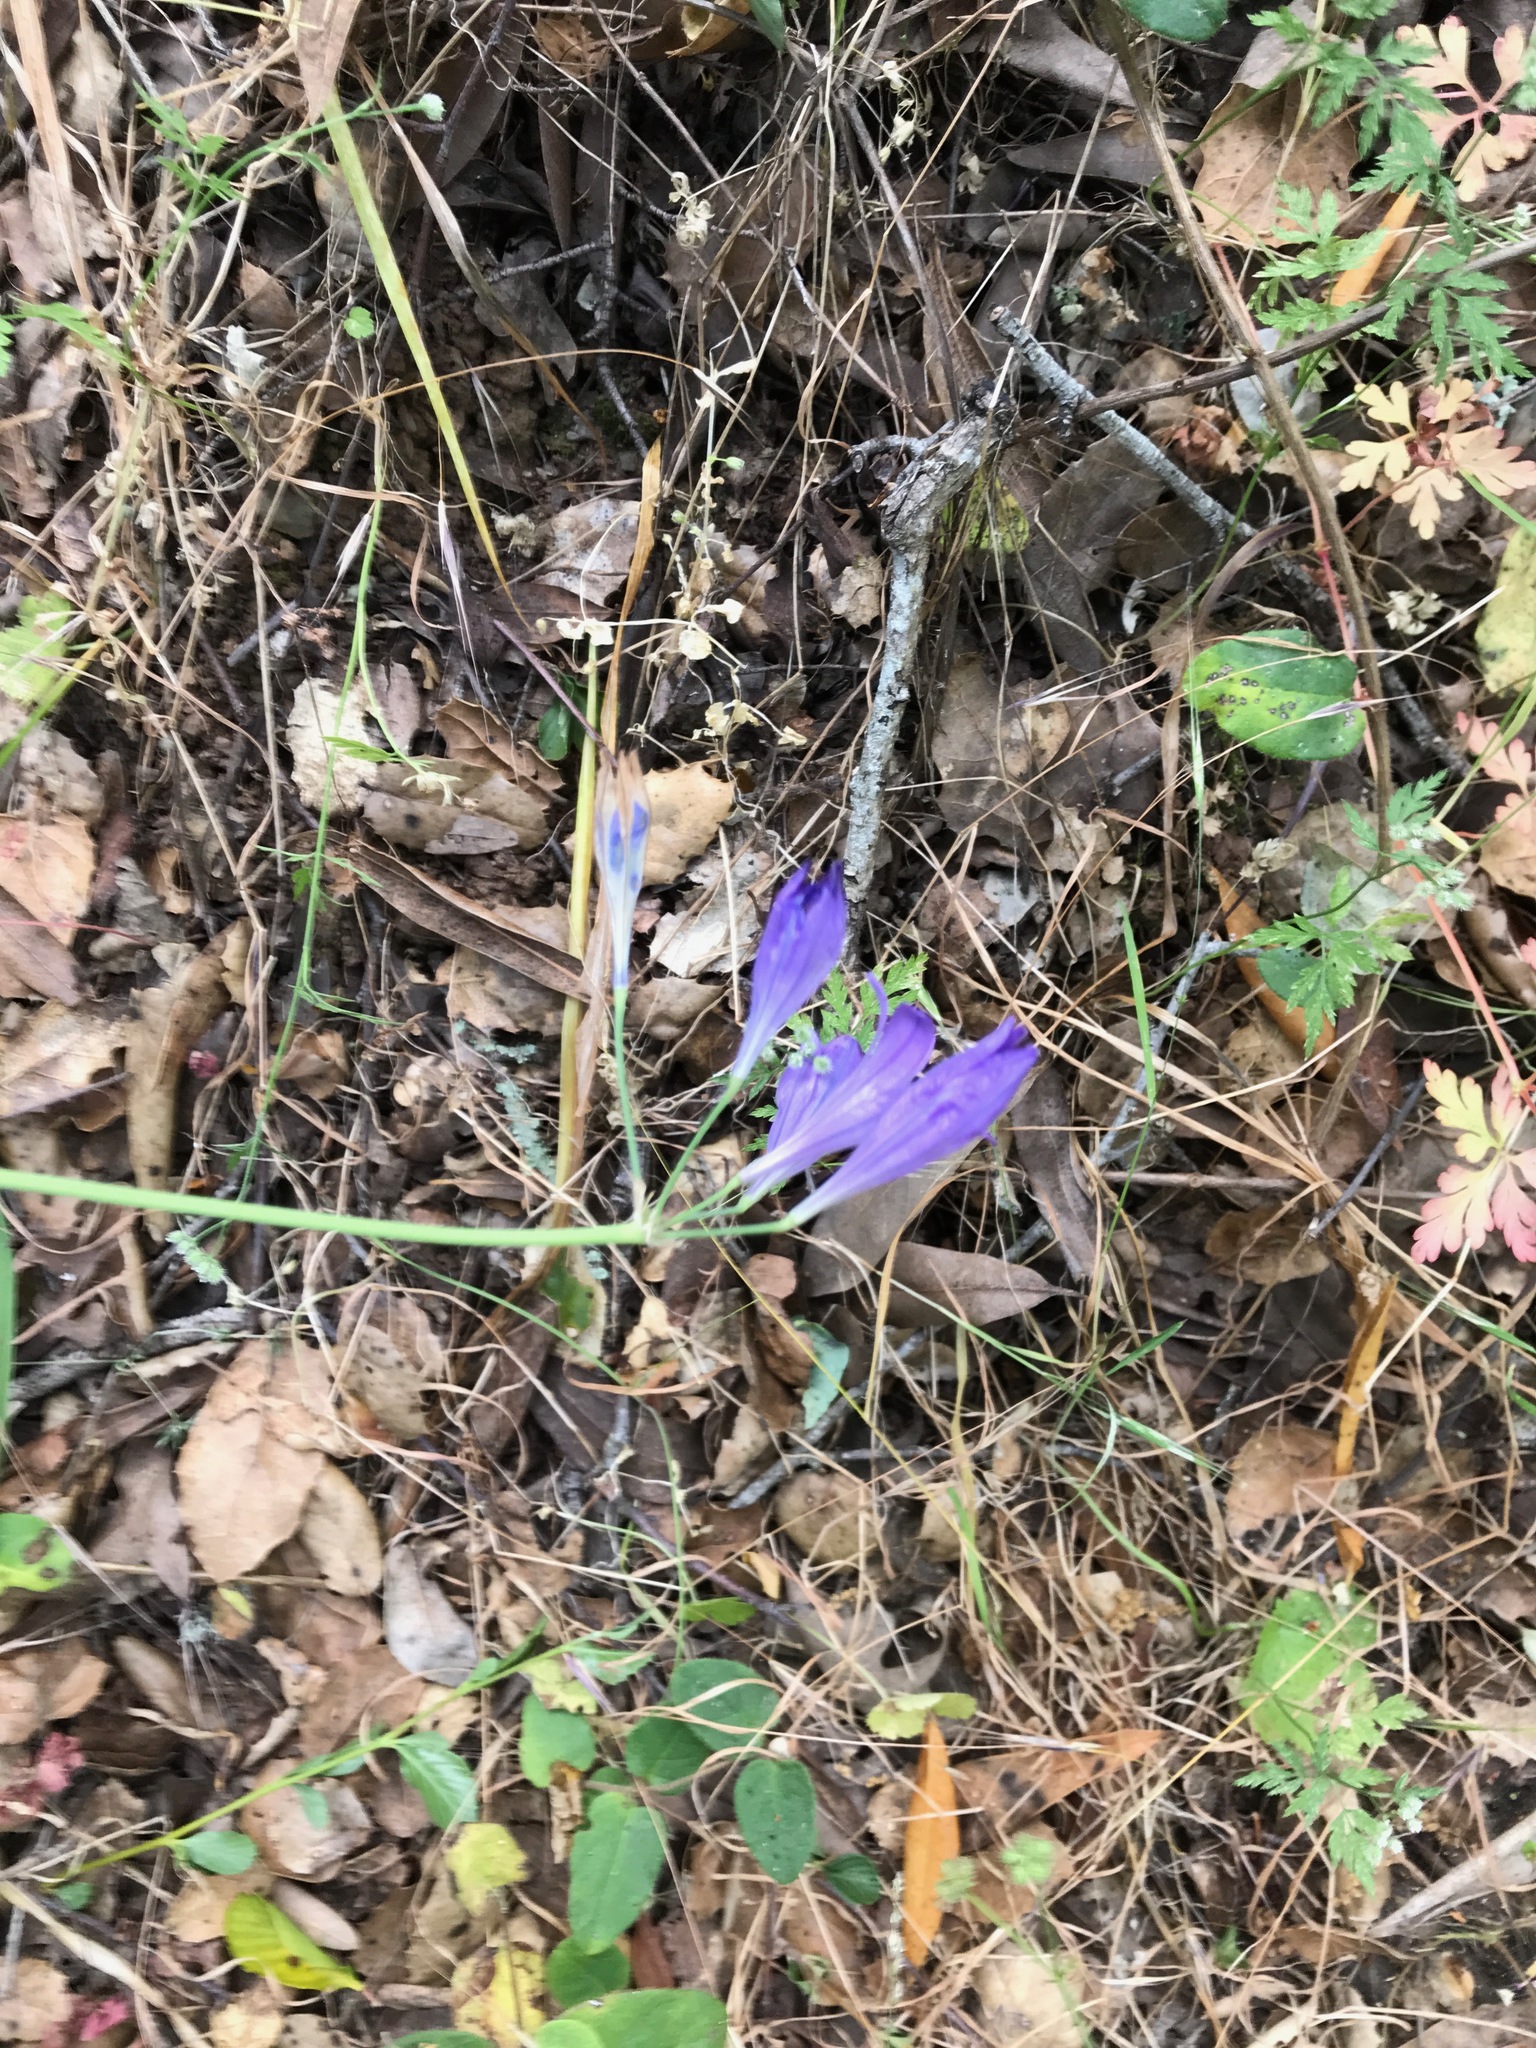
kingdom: Plantae
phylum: Tracheophyta
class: Liliopsida
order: Asparagales
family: Asparagaceae
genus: Triteleia
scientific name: Triteleia laxa
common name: Triplet-lily
